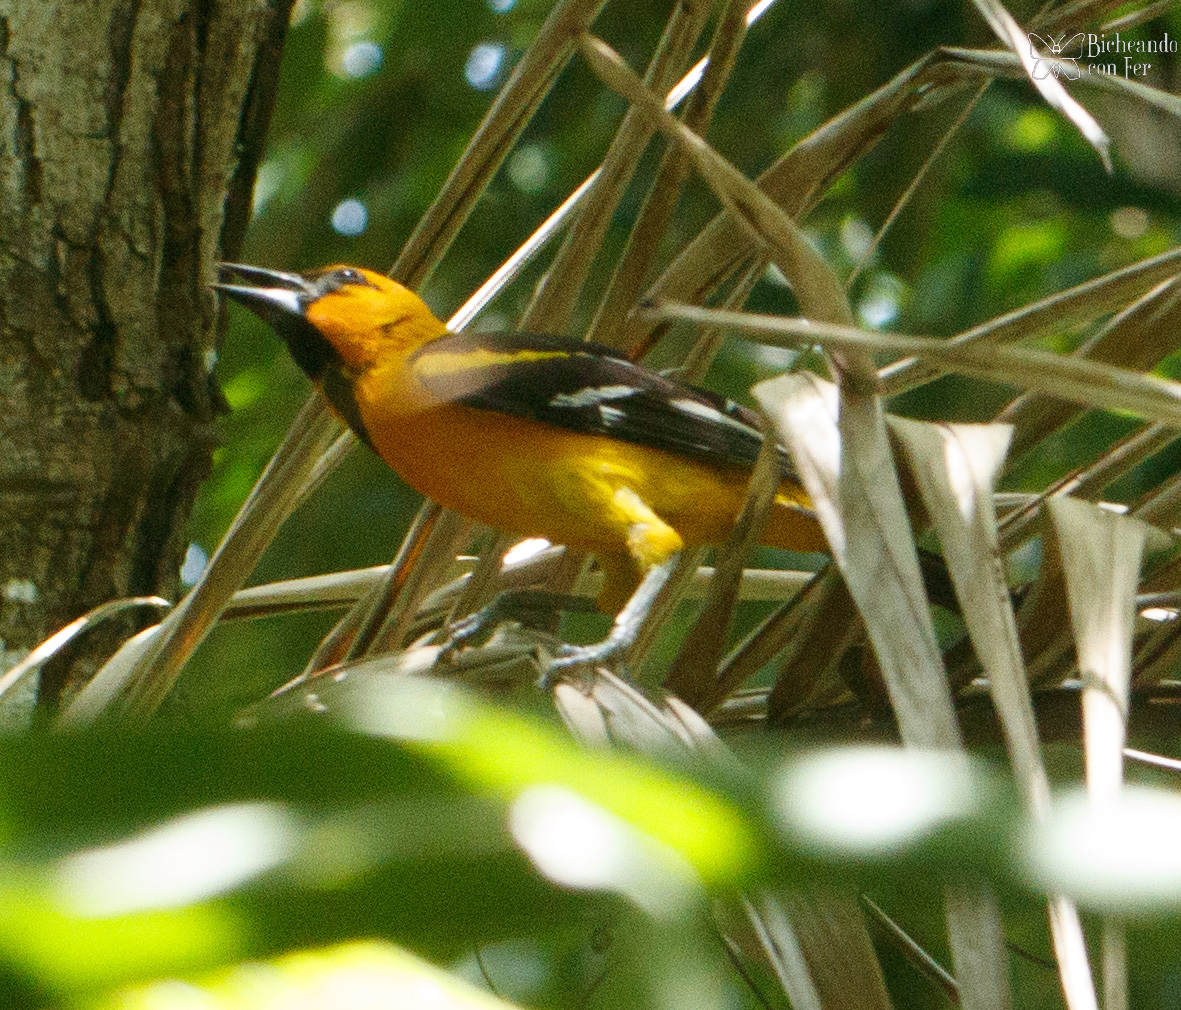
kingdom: Animalia
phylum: Chordata
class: Aves
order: Passeriformes
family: Icteridae
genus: Icterus
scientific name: Icterus gularis
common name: Altamira oriole
